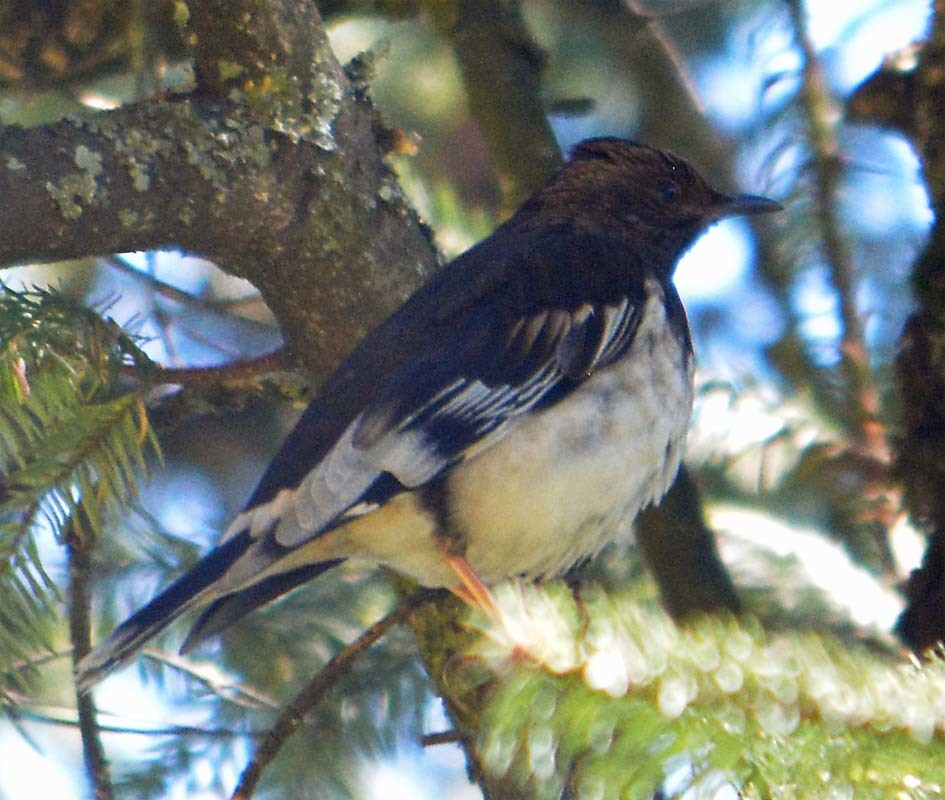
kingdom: Animalia
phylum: Chordata
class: Aves
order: Passeriformes
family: Turdidae
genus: Ridgwayia
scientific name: Ridgwayia pinicola
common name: Aztec thrush
